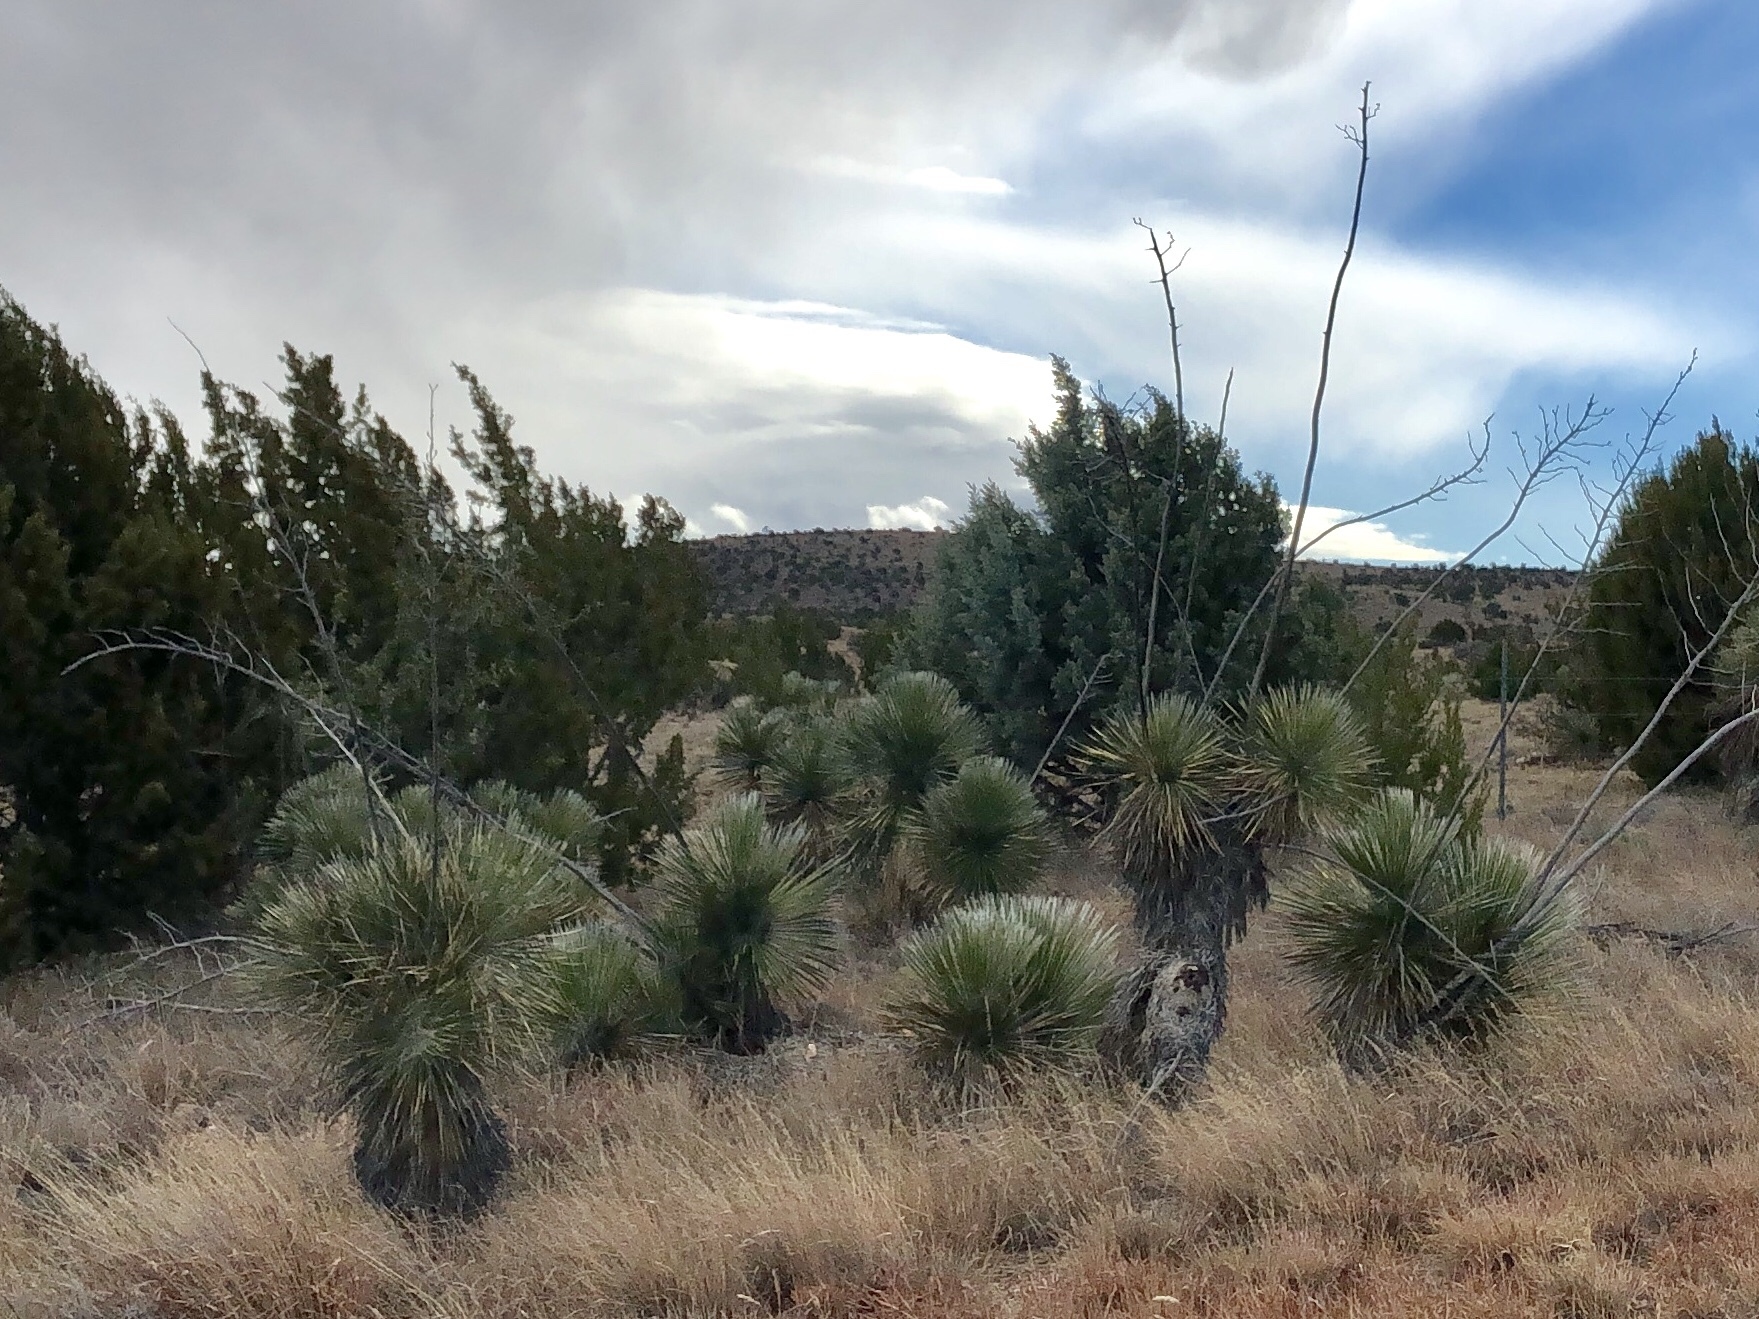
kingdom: Plantae
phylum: Tracheophyta
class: Liliopsida
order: Asparagales
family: Asparagaceae
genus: Yucca
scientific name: Yucca elata
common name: Palmella
